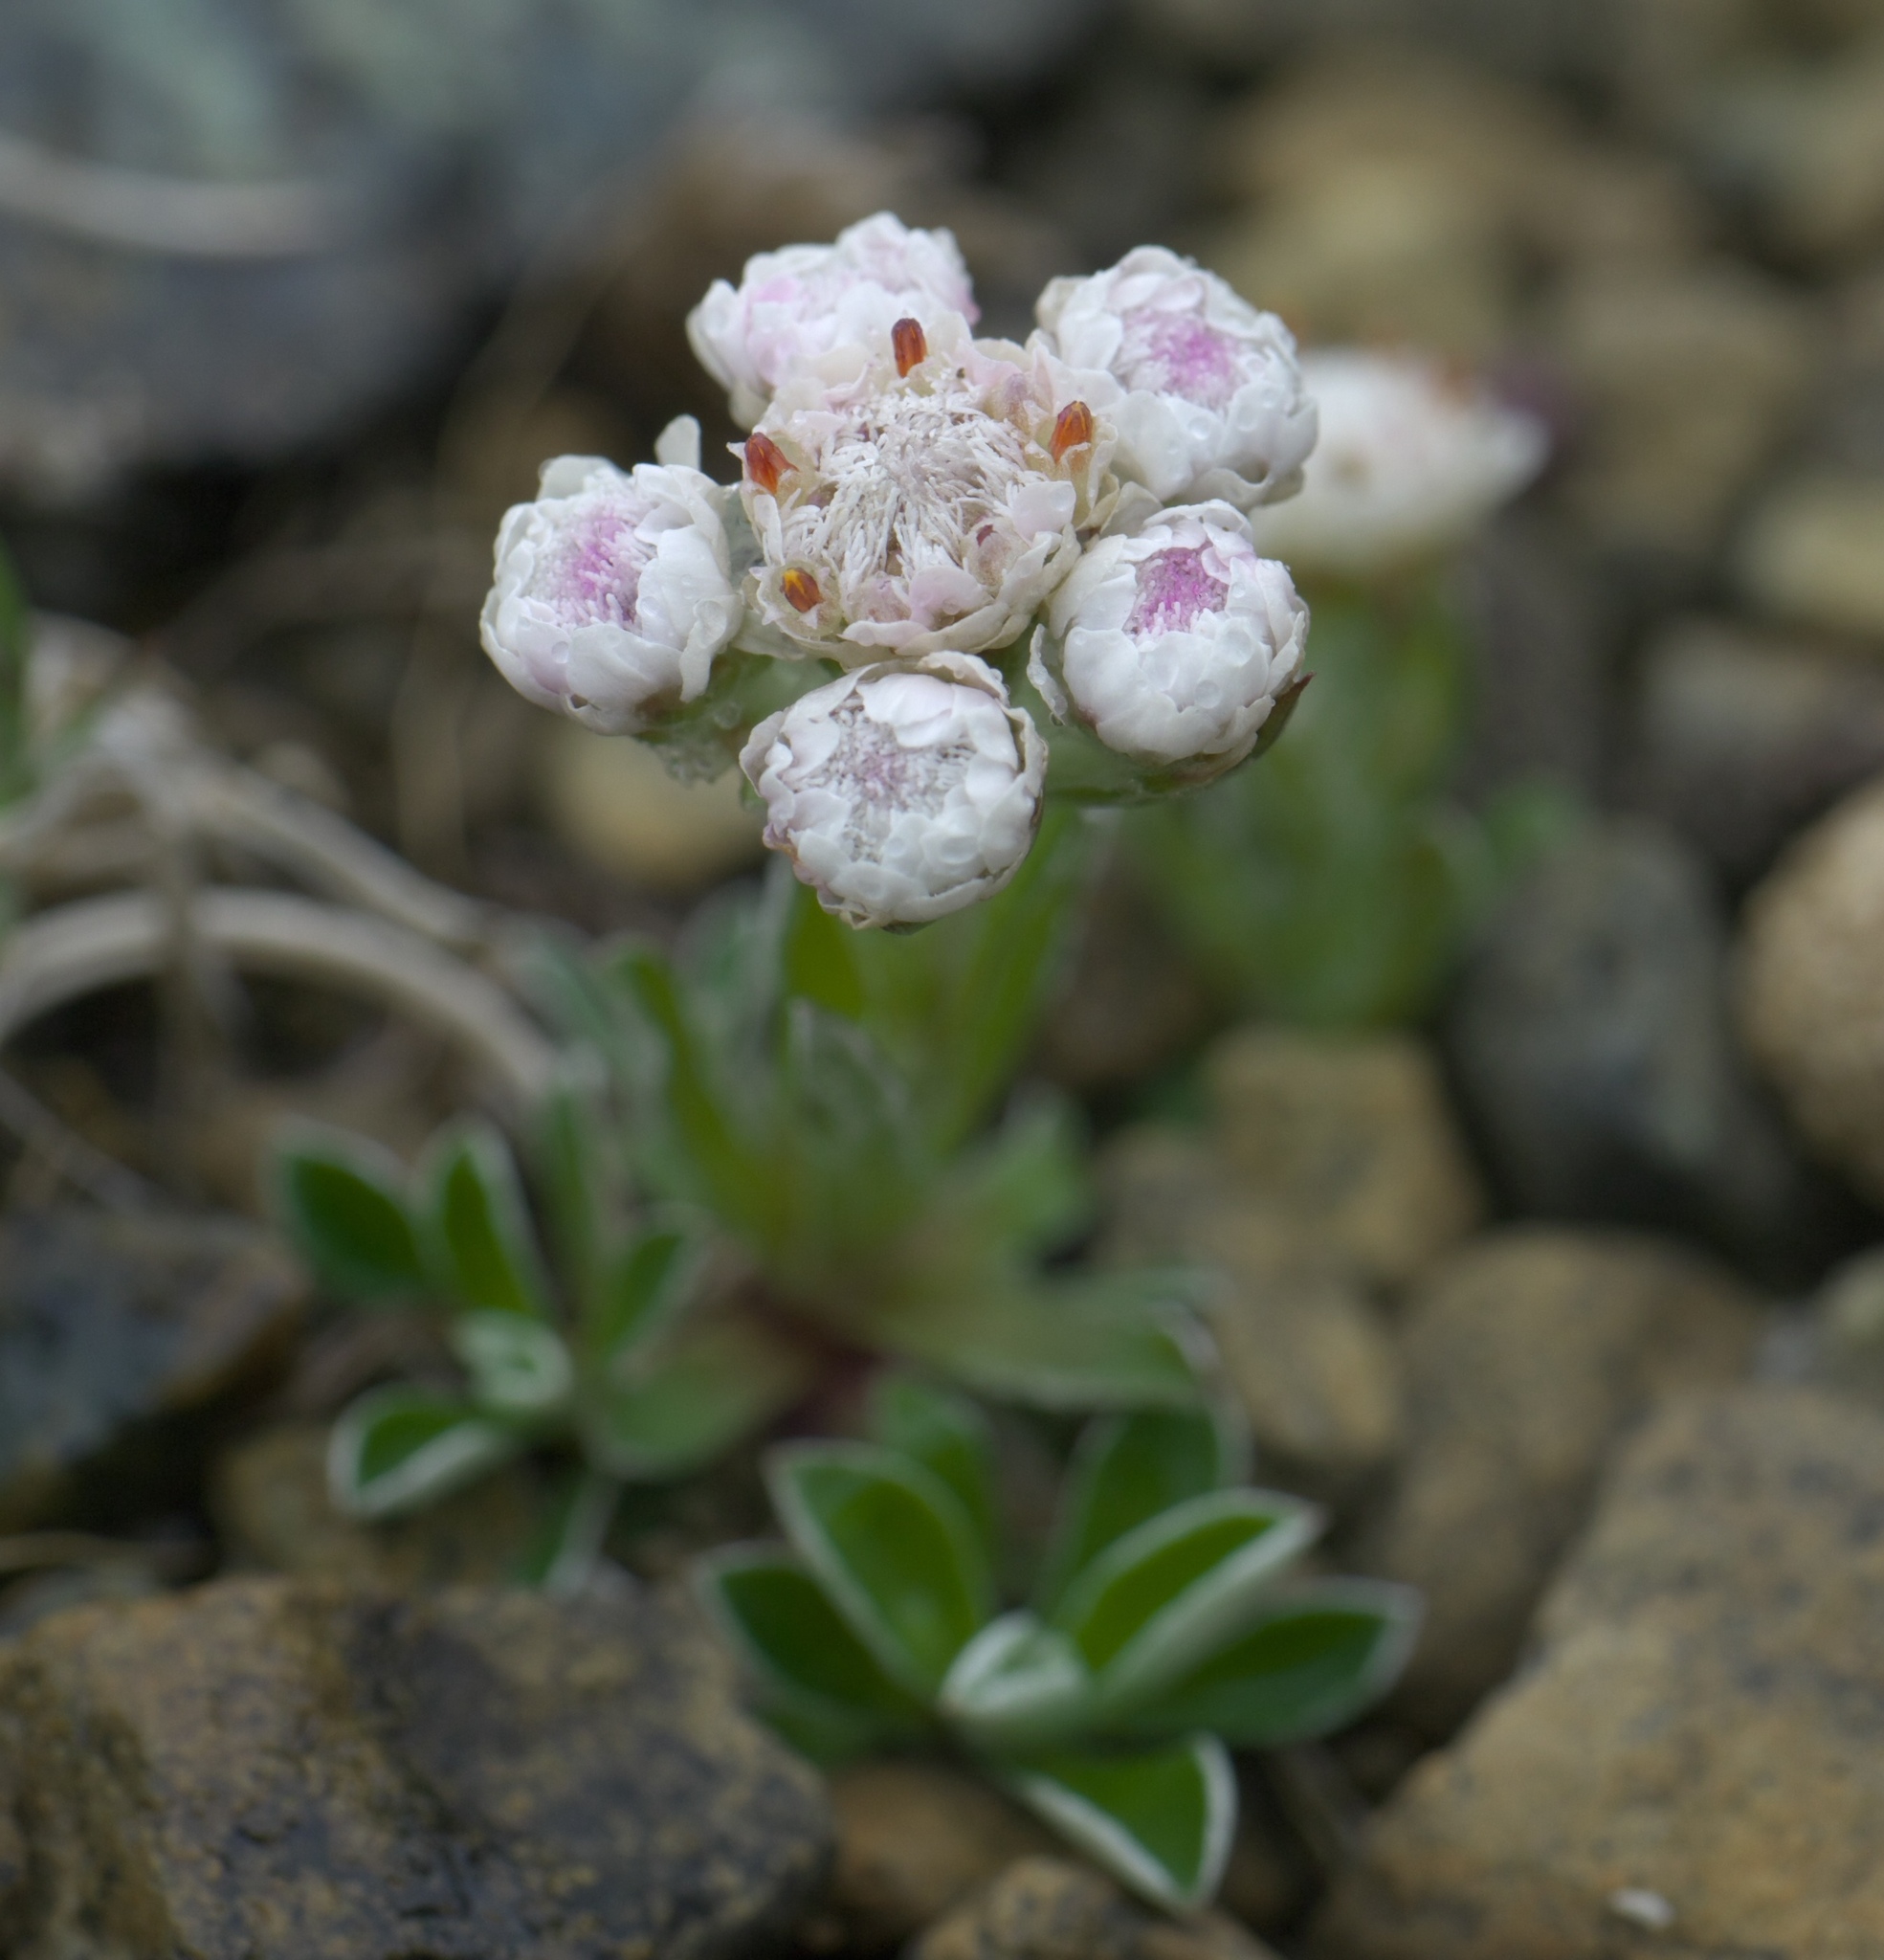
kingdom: Plantae
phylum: Tracheophyta
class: Magnoliopsida
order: Asterales
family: Asteraceae
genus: Antennaria
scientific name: Antennaria dioica
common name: Mountain everlasting
